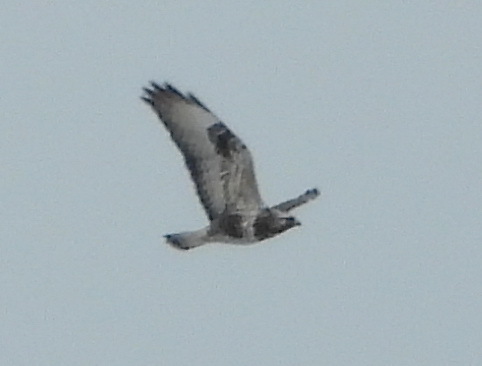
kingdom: Animalia
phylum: Chordata
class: Aves
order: Accipitriformes
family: Accipitridae
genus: Buteo
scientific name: Buteo lagopus
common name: Rough-legged buzzard
